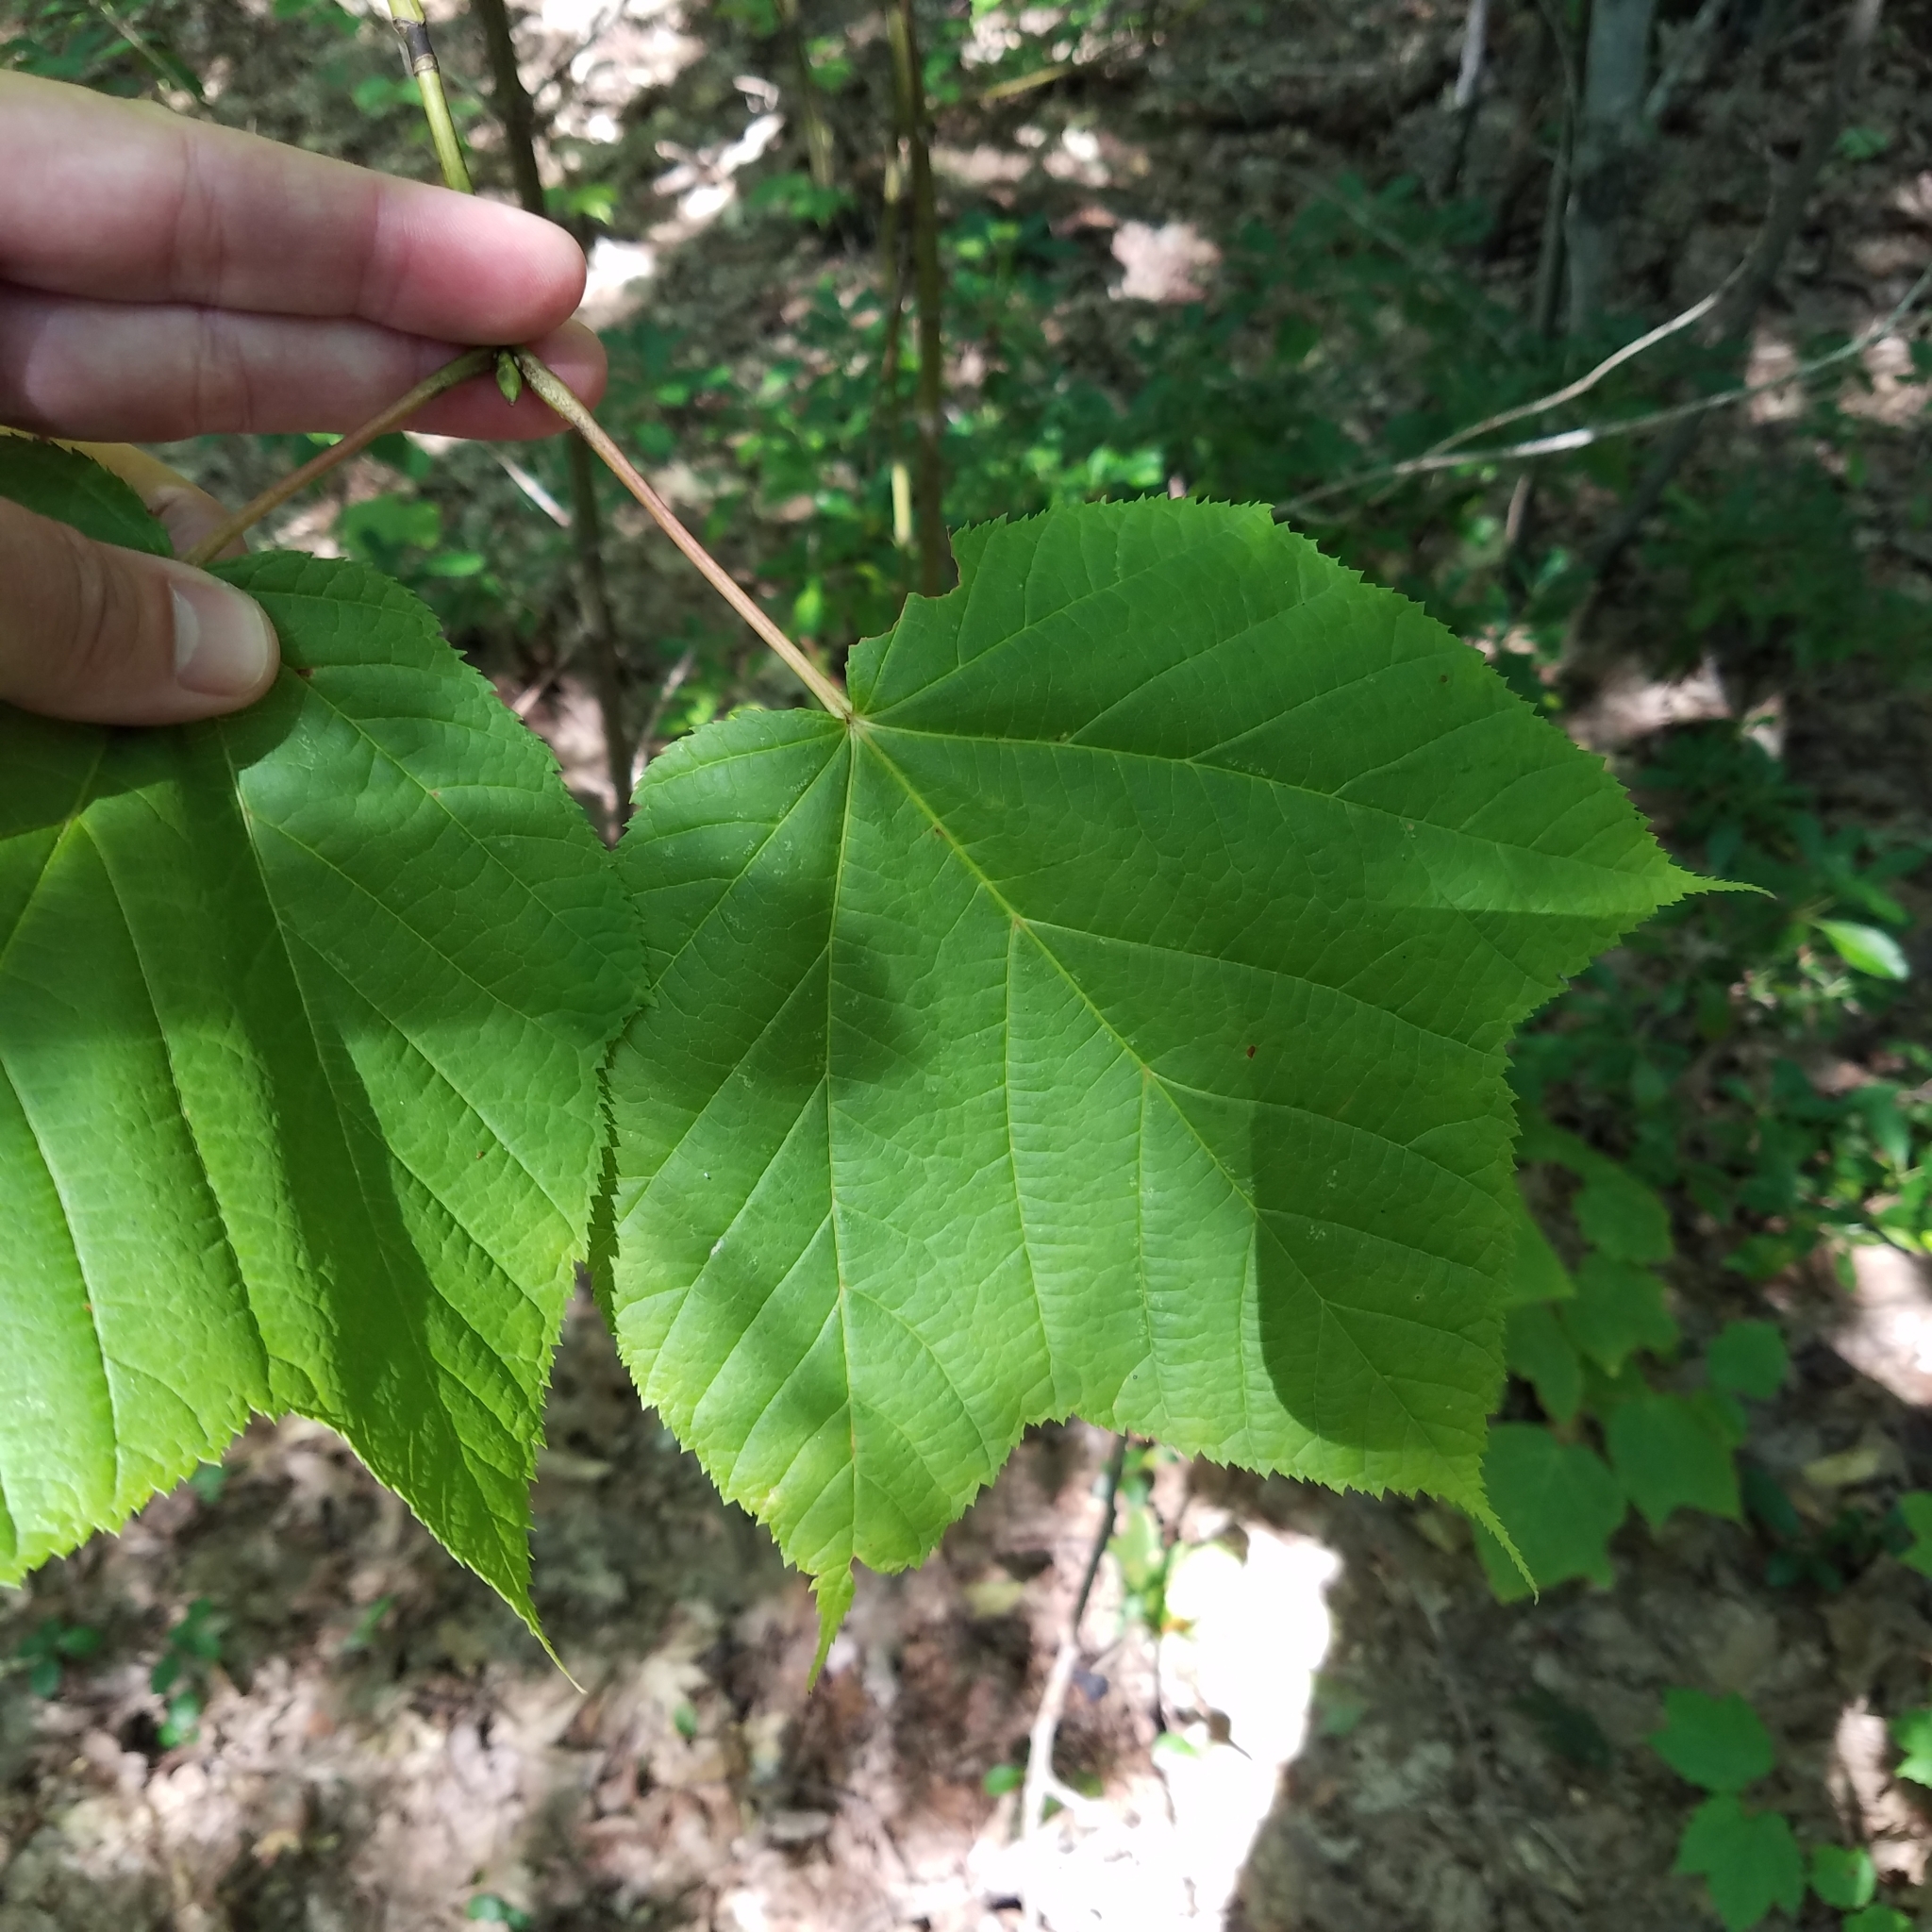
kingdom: Plantae
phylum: Tracheophyta
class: Magnoliopsida
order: Sapindales
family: Sapindaceae
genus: Acer
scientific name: Acer pensylvanicum
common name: Moosewood
